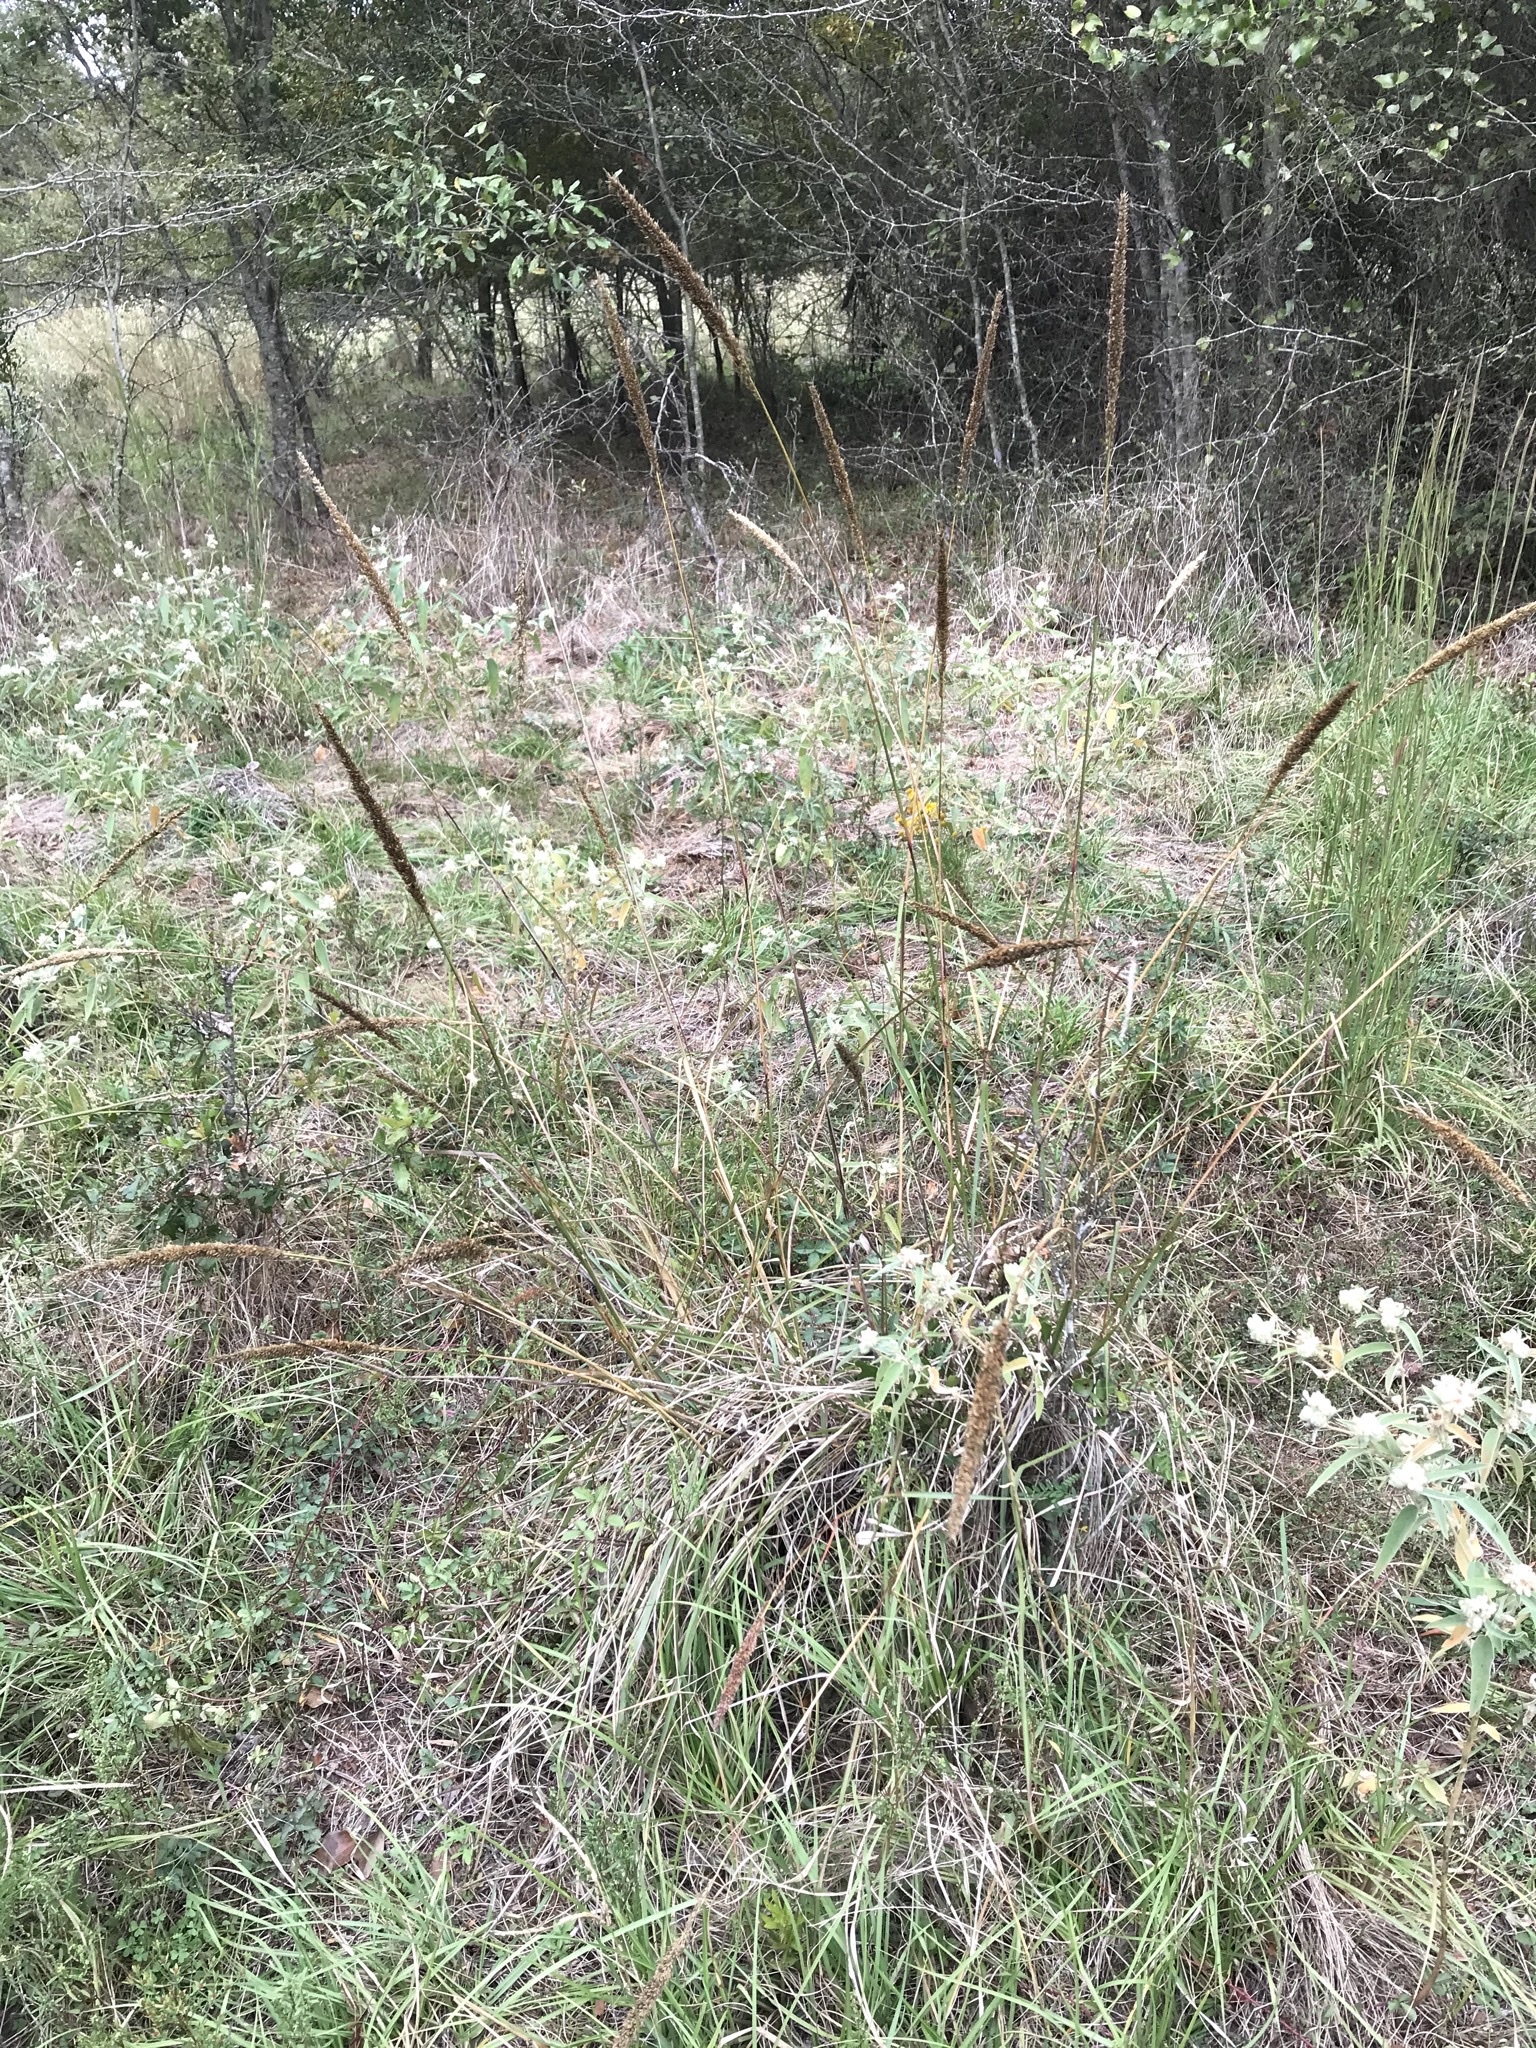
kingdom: Plantae
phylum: Tracheophyta
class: Liliopsida
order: Poales
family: Poaceae
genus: Tridens
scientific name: Tridens strictus
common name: Long-spike tridens
